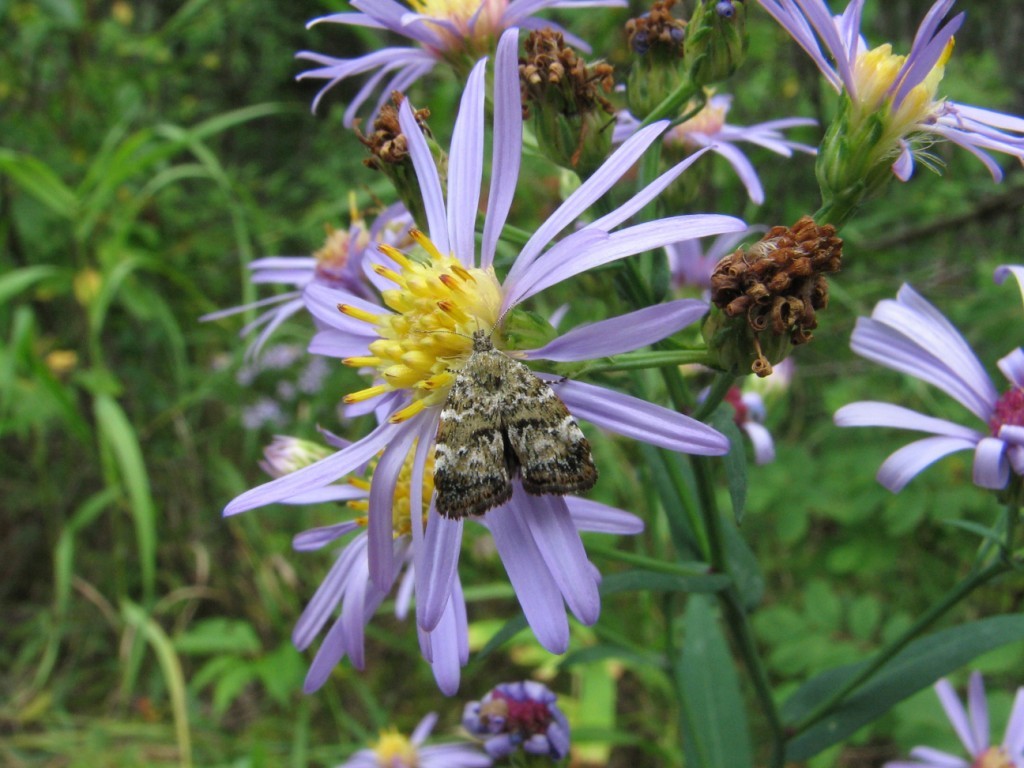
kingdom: Animalia
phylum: Arthropoda
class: Insecta
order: Lepidoptera
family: Choreutidae
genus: Choreutis
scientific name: Choreutis diana
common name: Inverness twitcher
